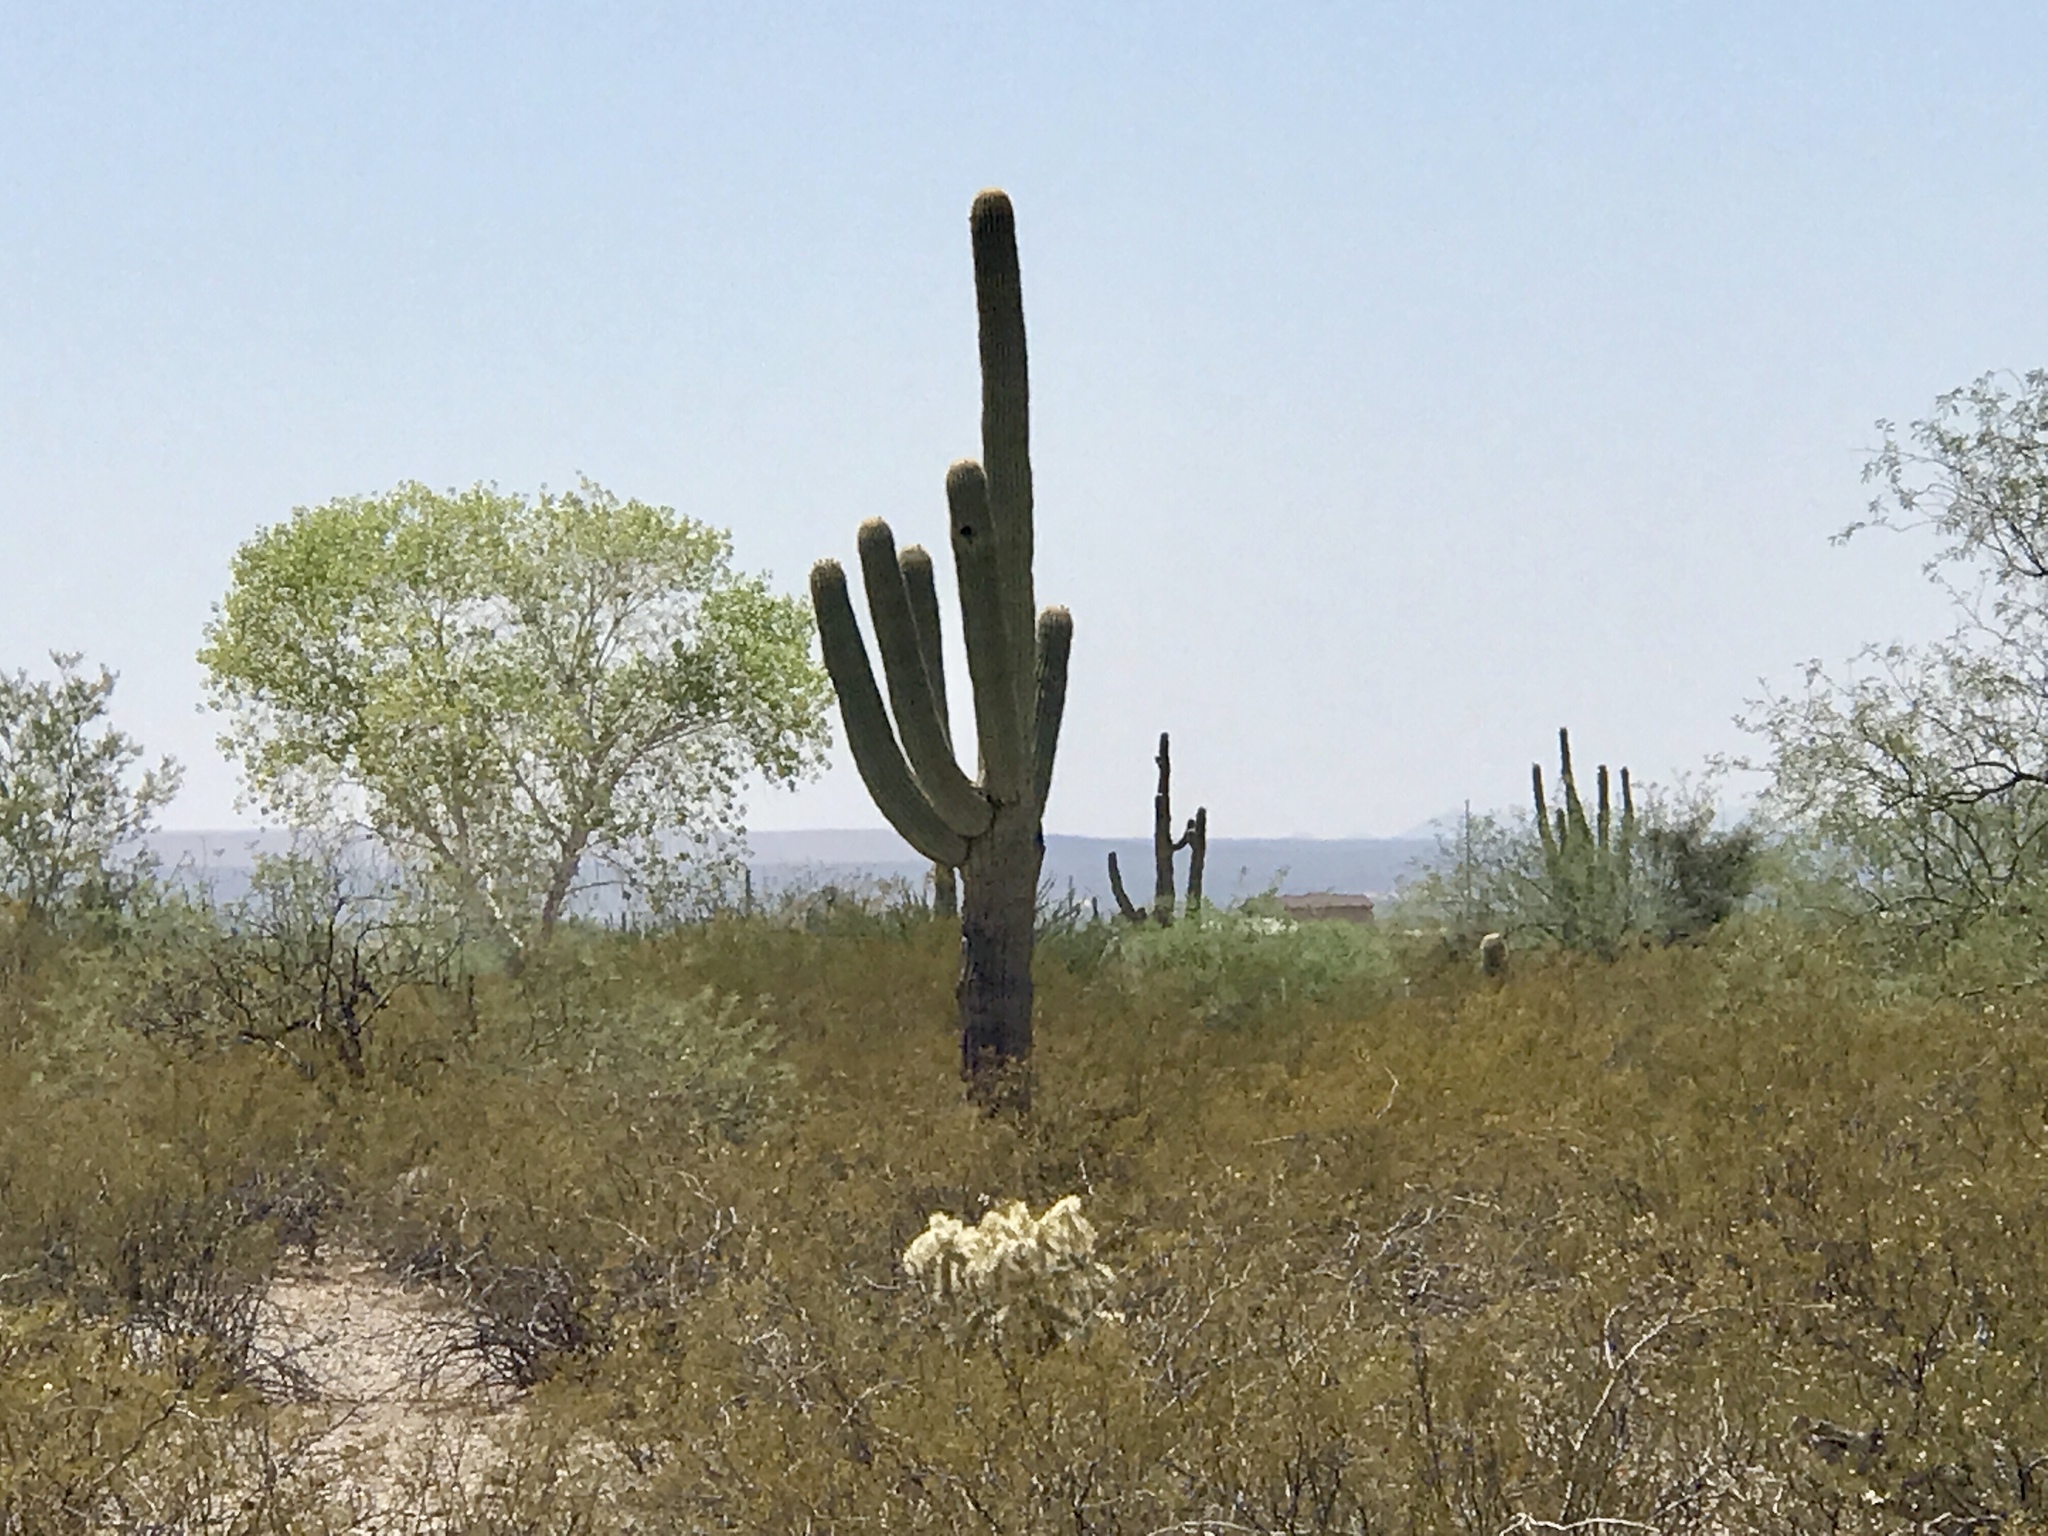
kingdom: Plantae
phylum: Tracheophyta
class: Magnoliopsida
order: Caryophyllales
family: Cactaceae
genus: Carnegiea
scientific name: Carnegiea gigantea
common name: Saguaro
